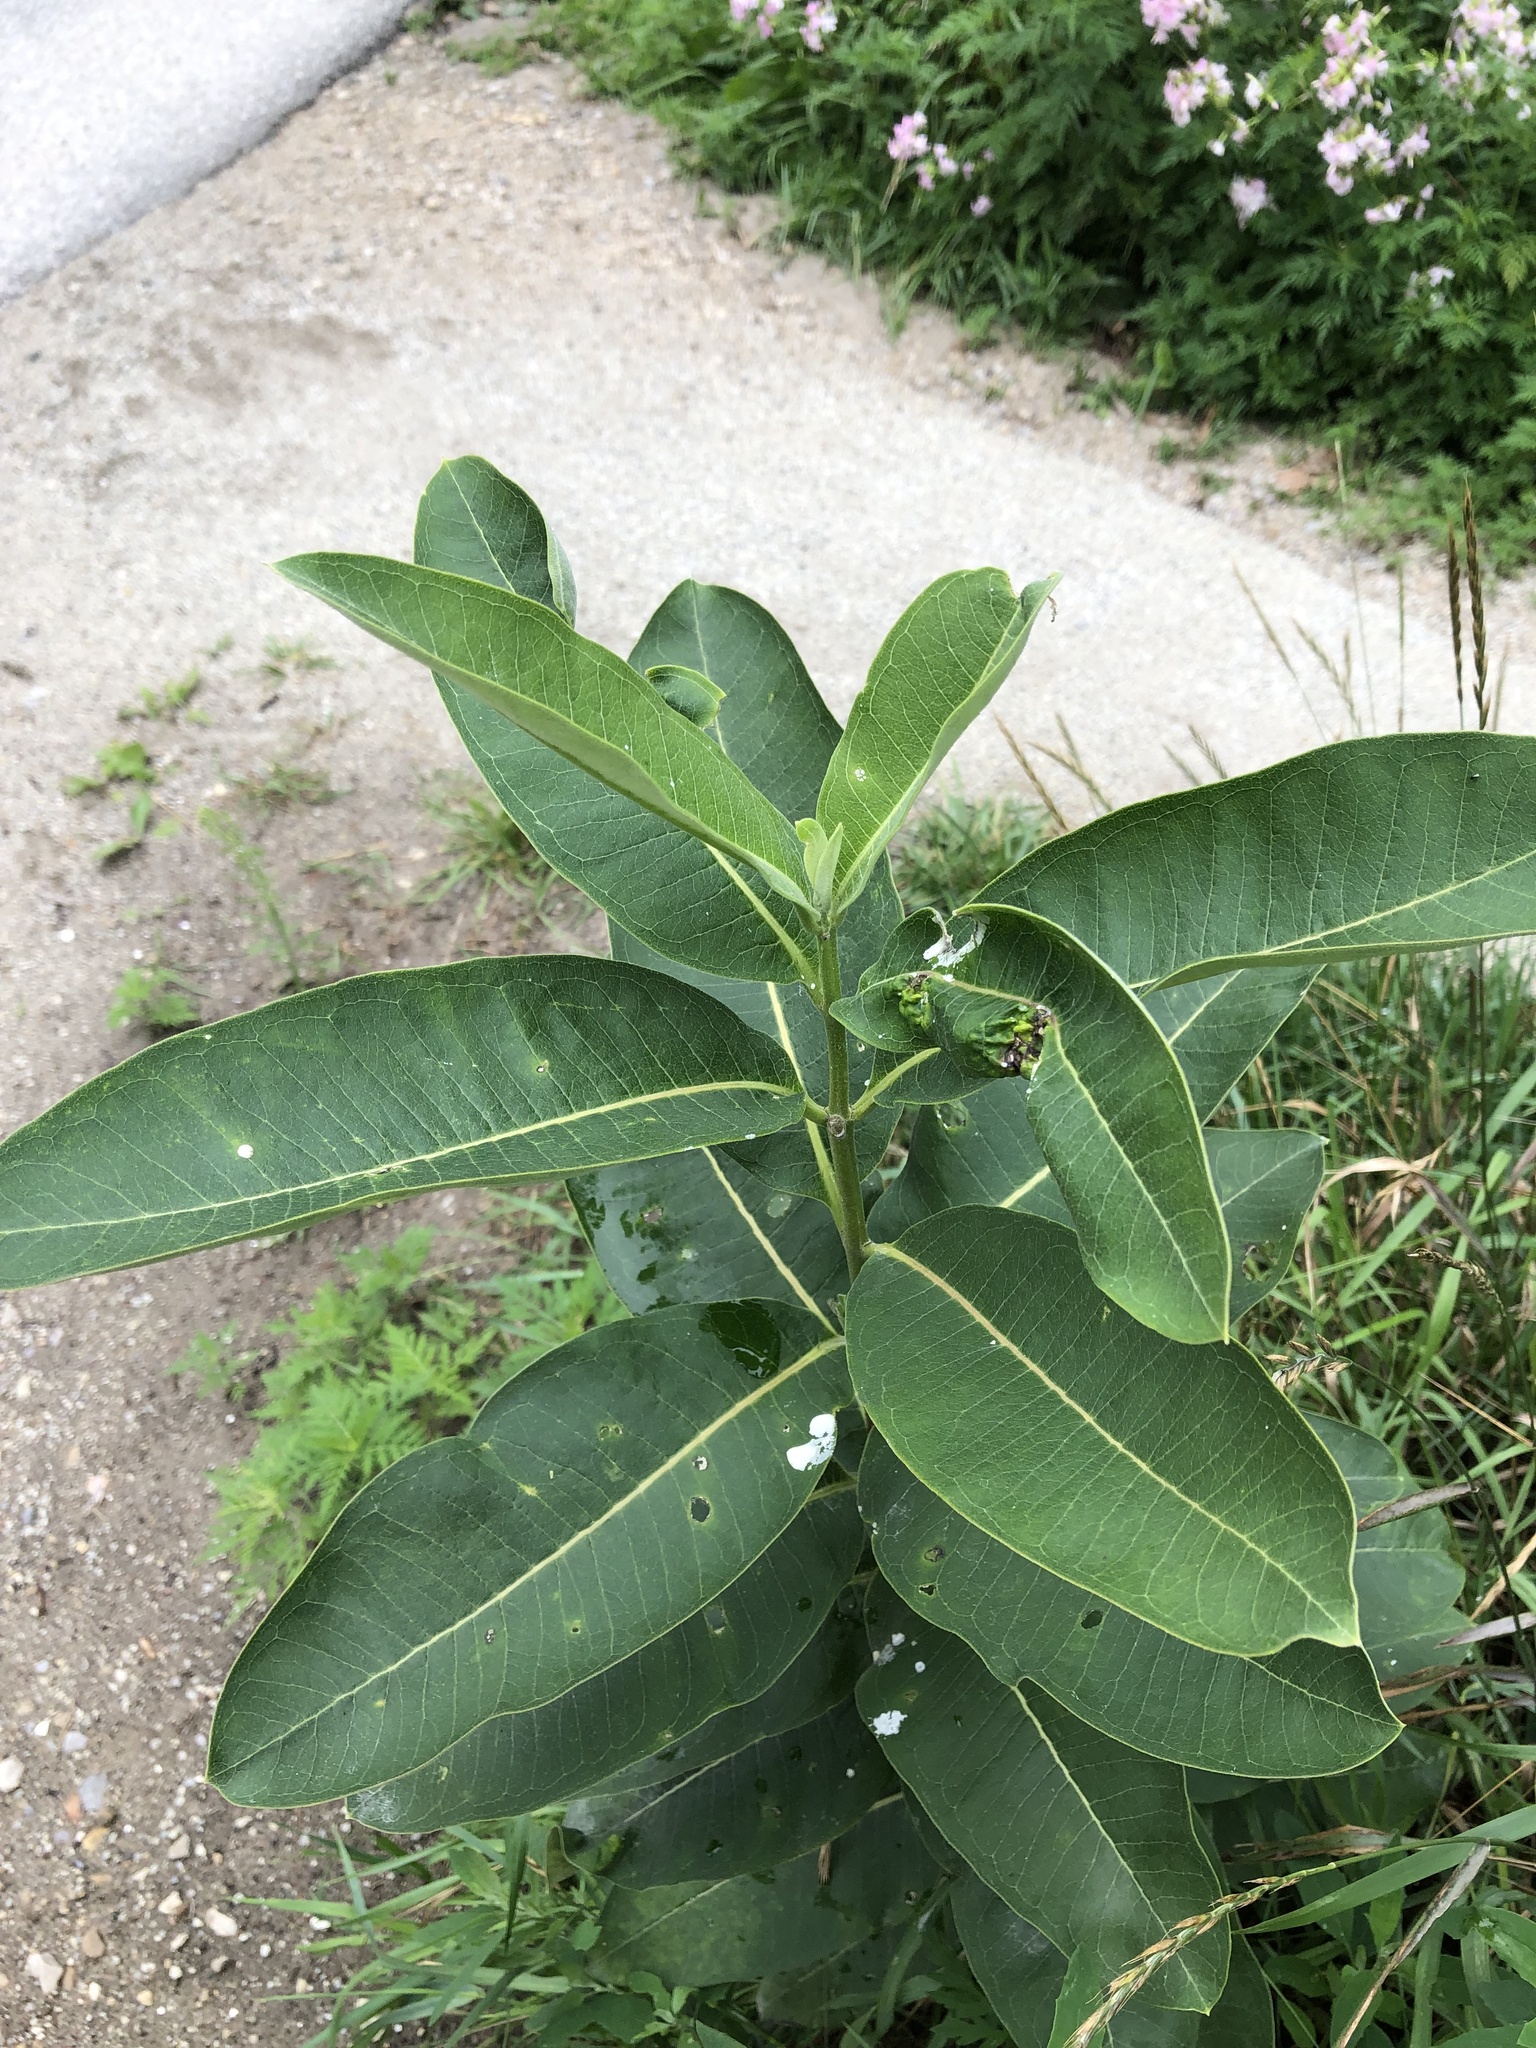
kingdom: Plantae
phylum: Tracheophyta
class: Magnoliopsida
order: Gentianales
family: Apocynaceae
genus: Asclepias
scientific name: Asclepias syriaca
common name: Common milkweed
